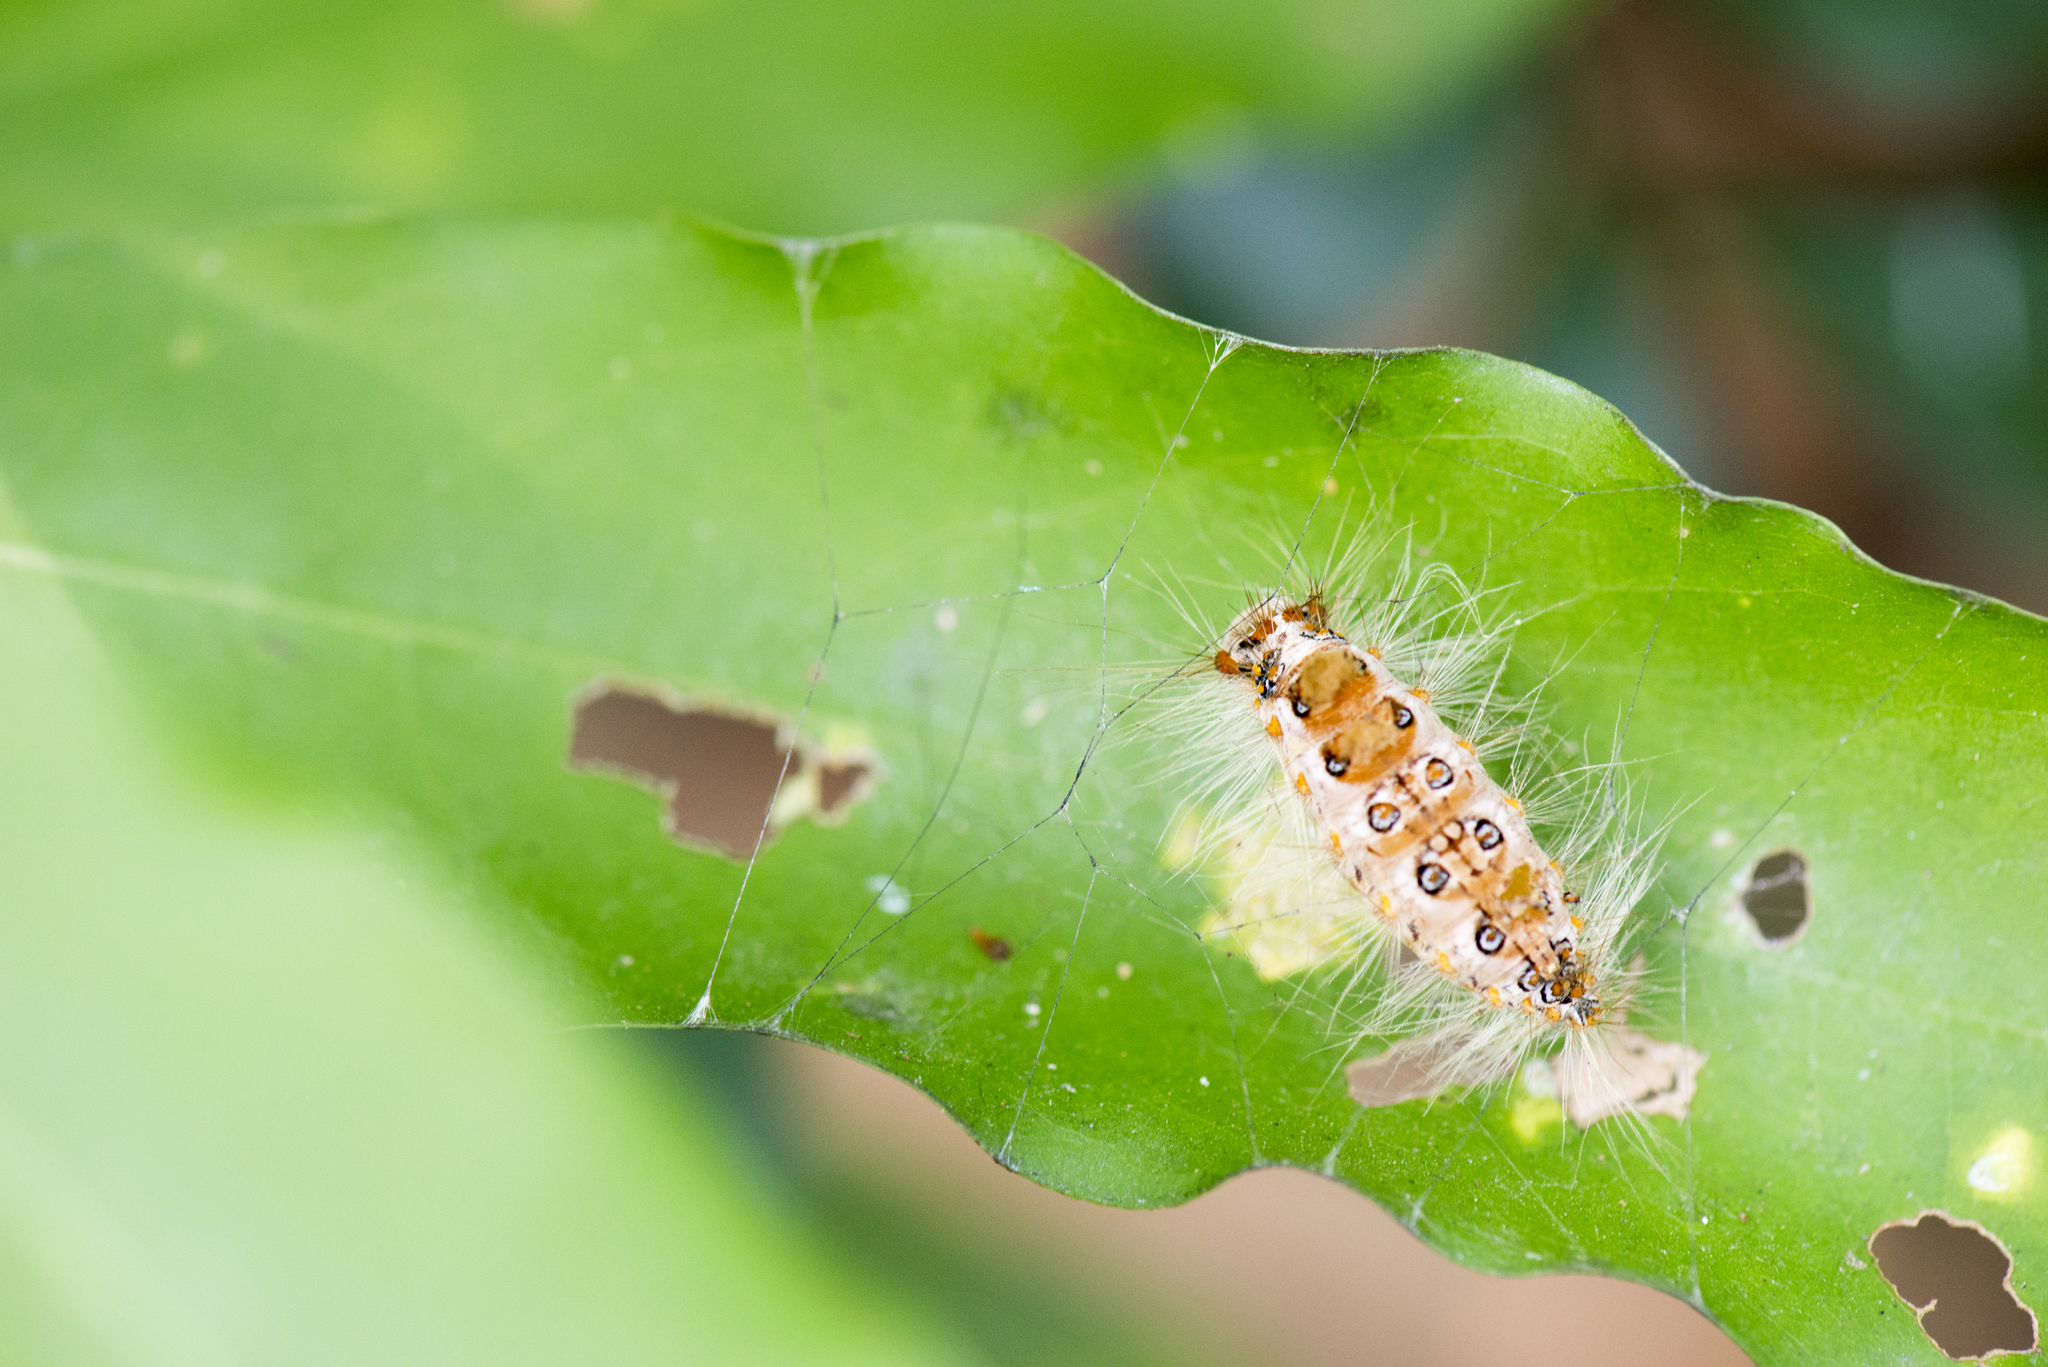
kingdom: Animalia
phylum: Arthropoda
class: Insecta
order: Lepidoptera
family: Erebidae
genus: Perina
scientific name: Perina nuda
